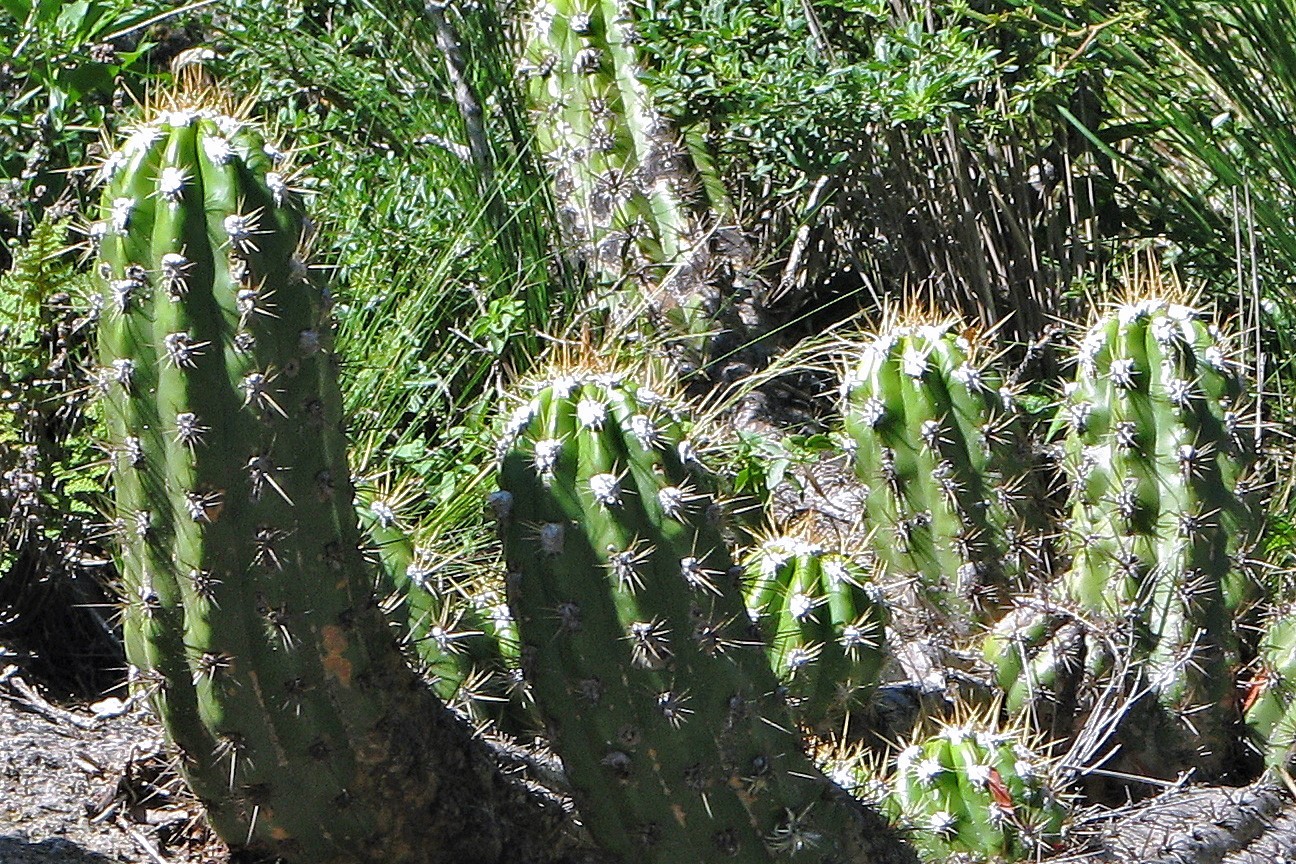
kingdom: Plantae
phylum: Tracheophyta
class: Magnoliopsida
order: Caryophyllales
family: Cactaceae
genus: Soehrensia
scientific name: Soehrensia candicans
